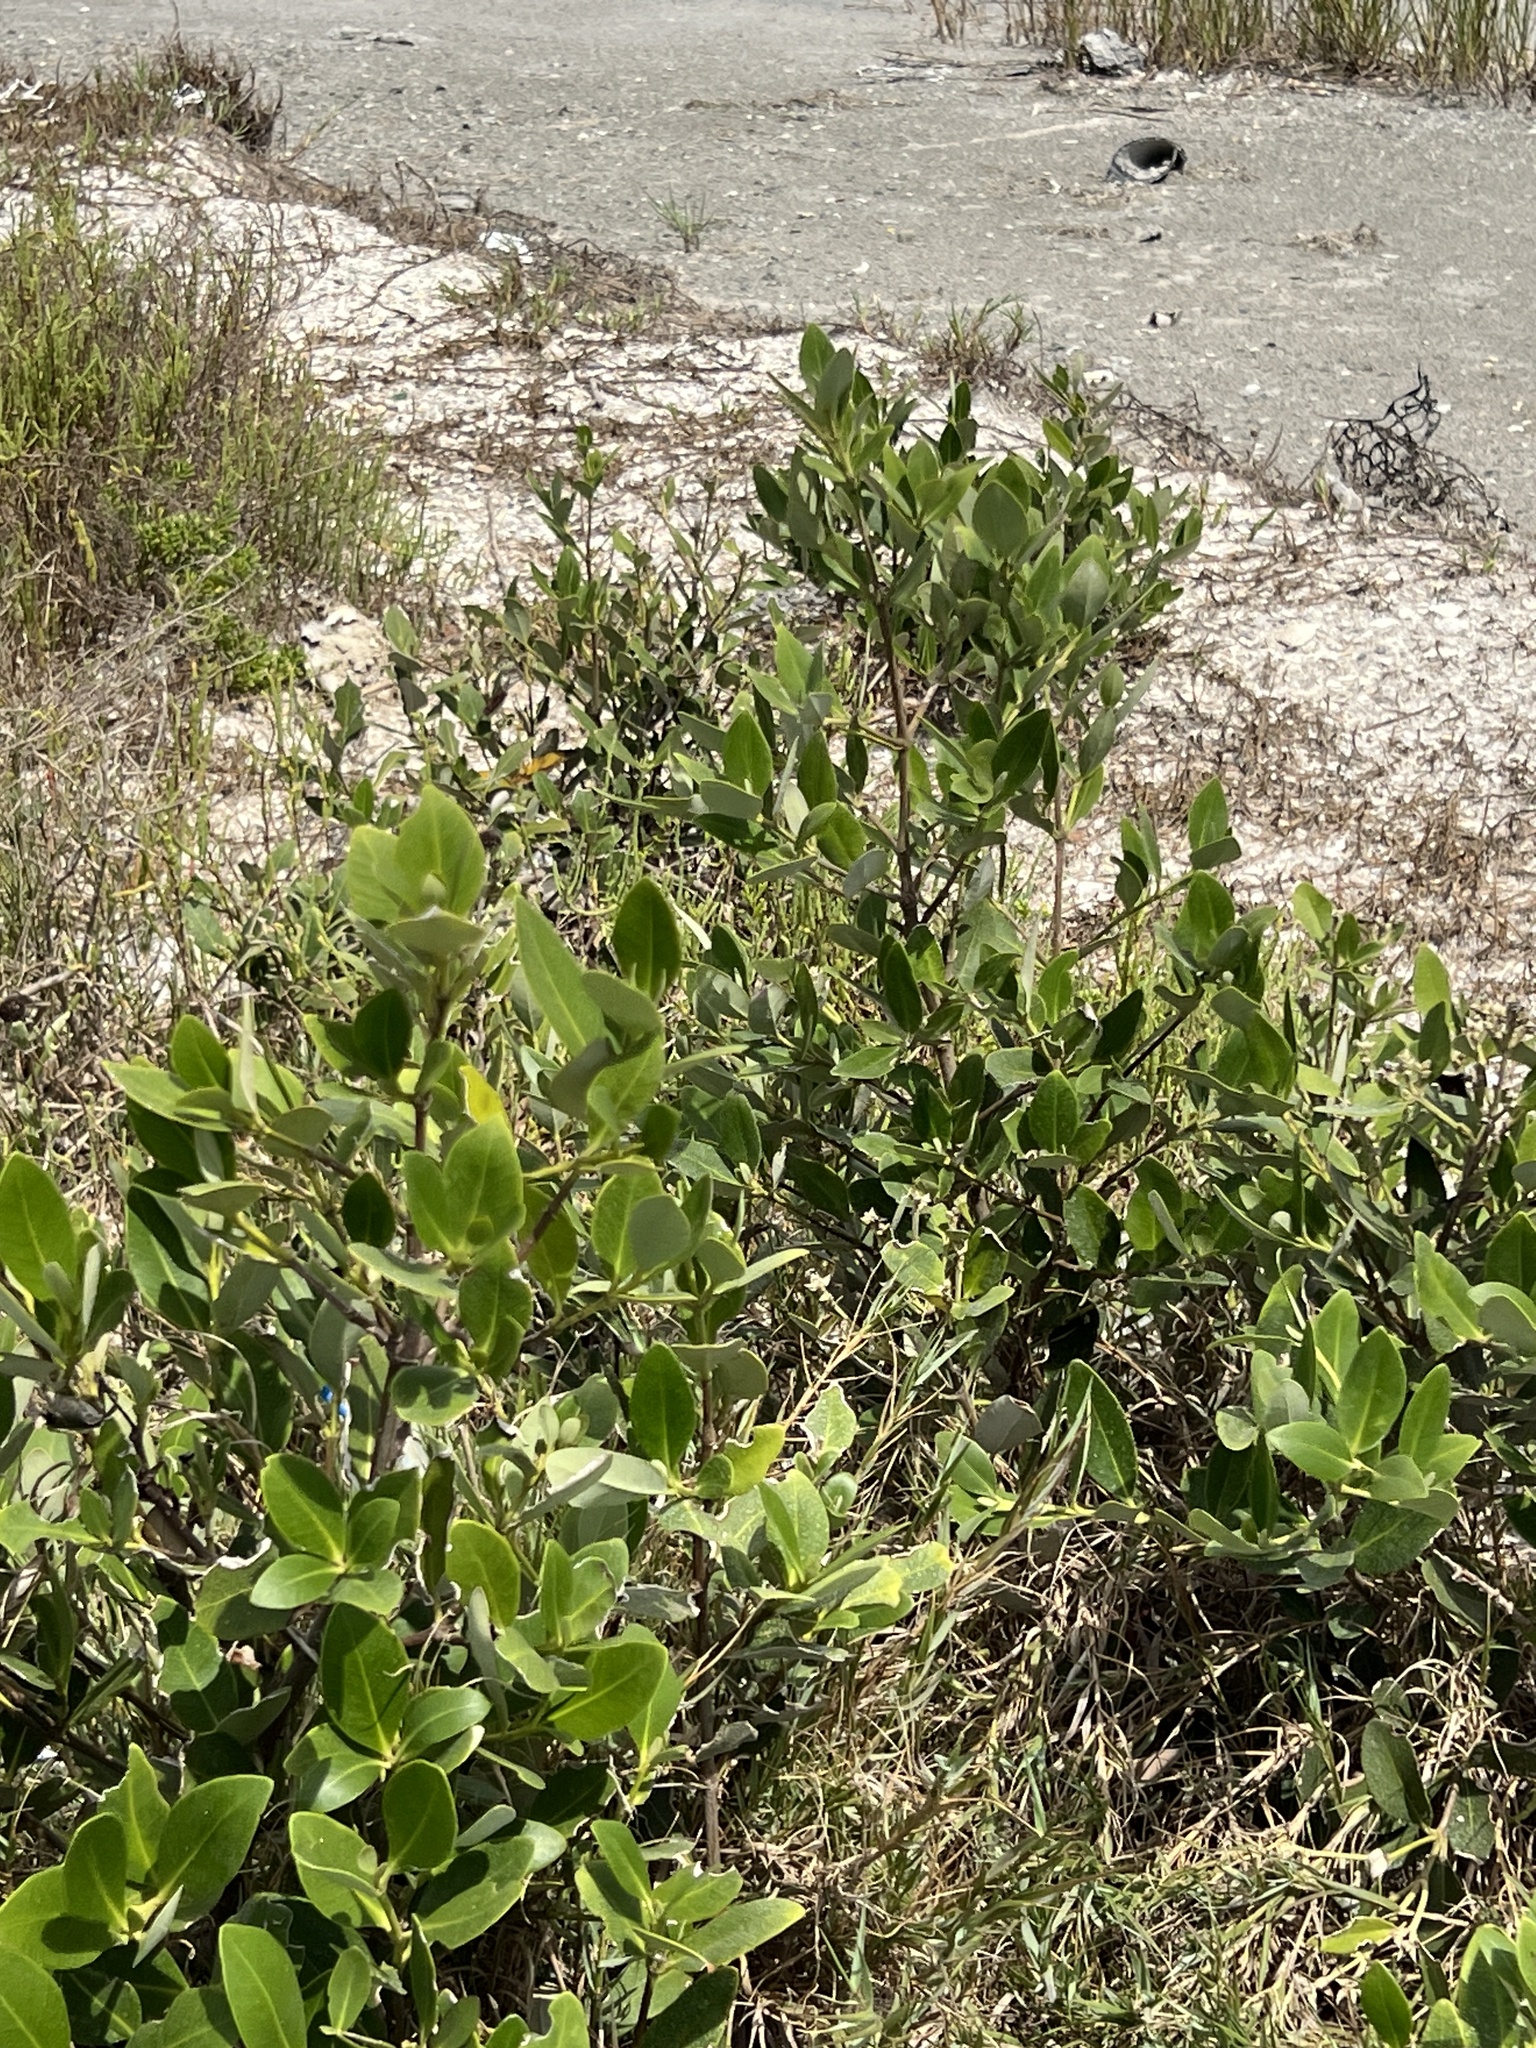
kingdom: Plantae
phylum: Tracheophyta
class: Magnoliopsida
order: Lamiales
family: Acanthaceae
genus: Avicennia
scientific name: Avicennia germinans
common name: Black mangrove
